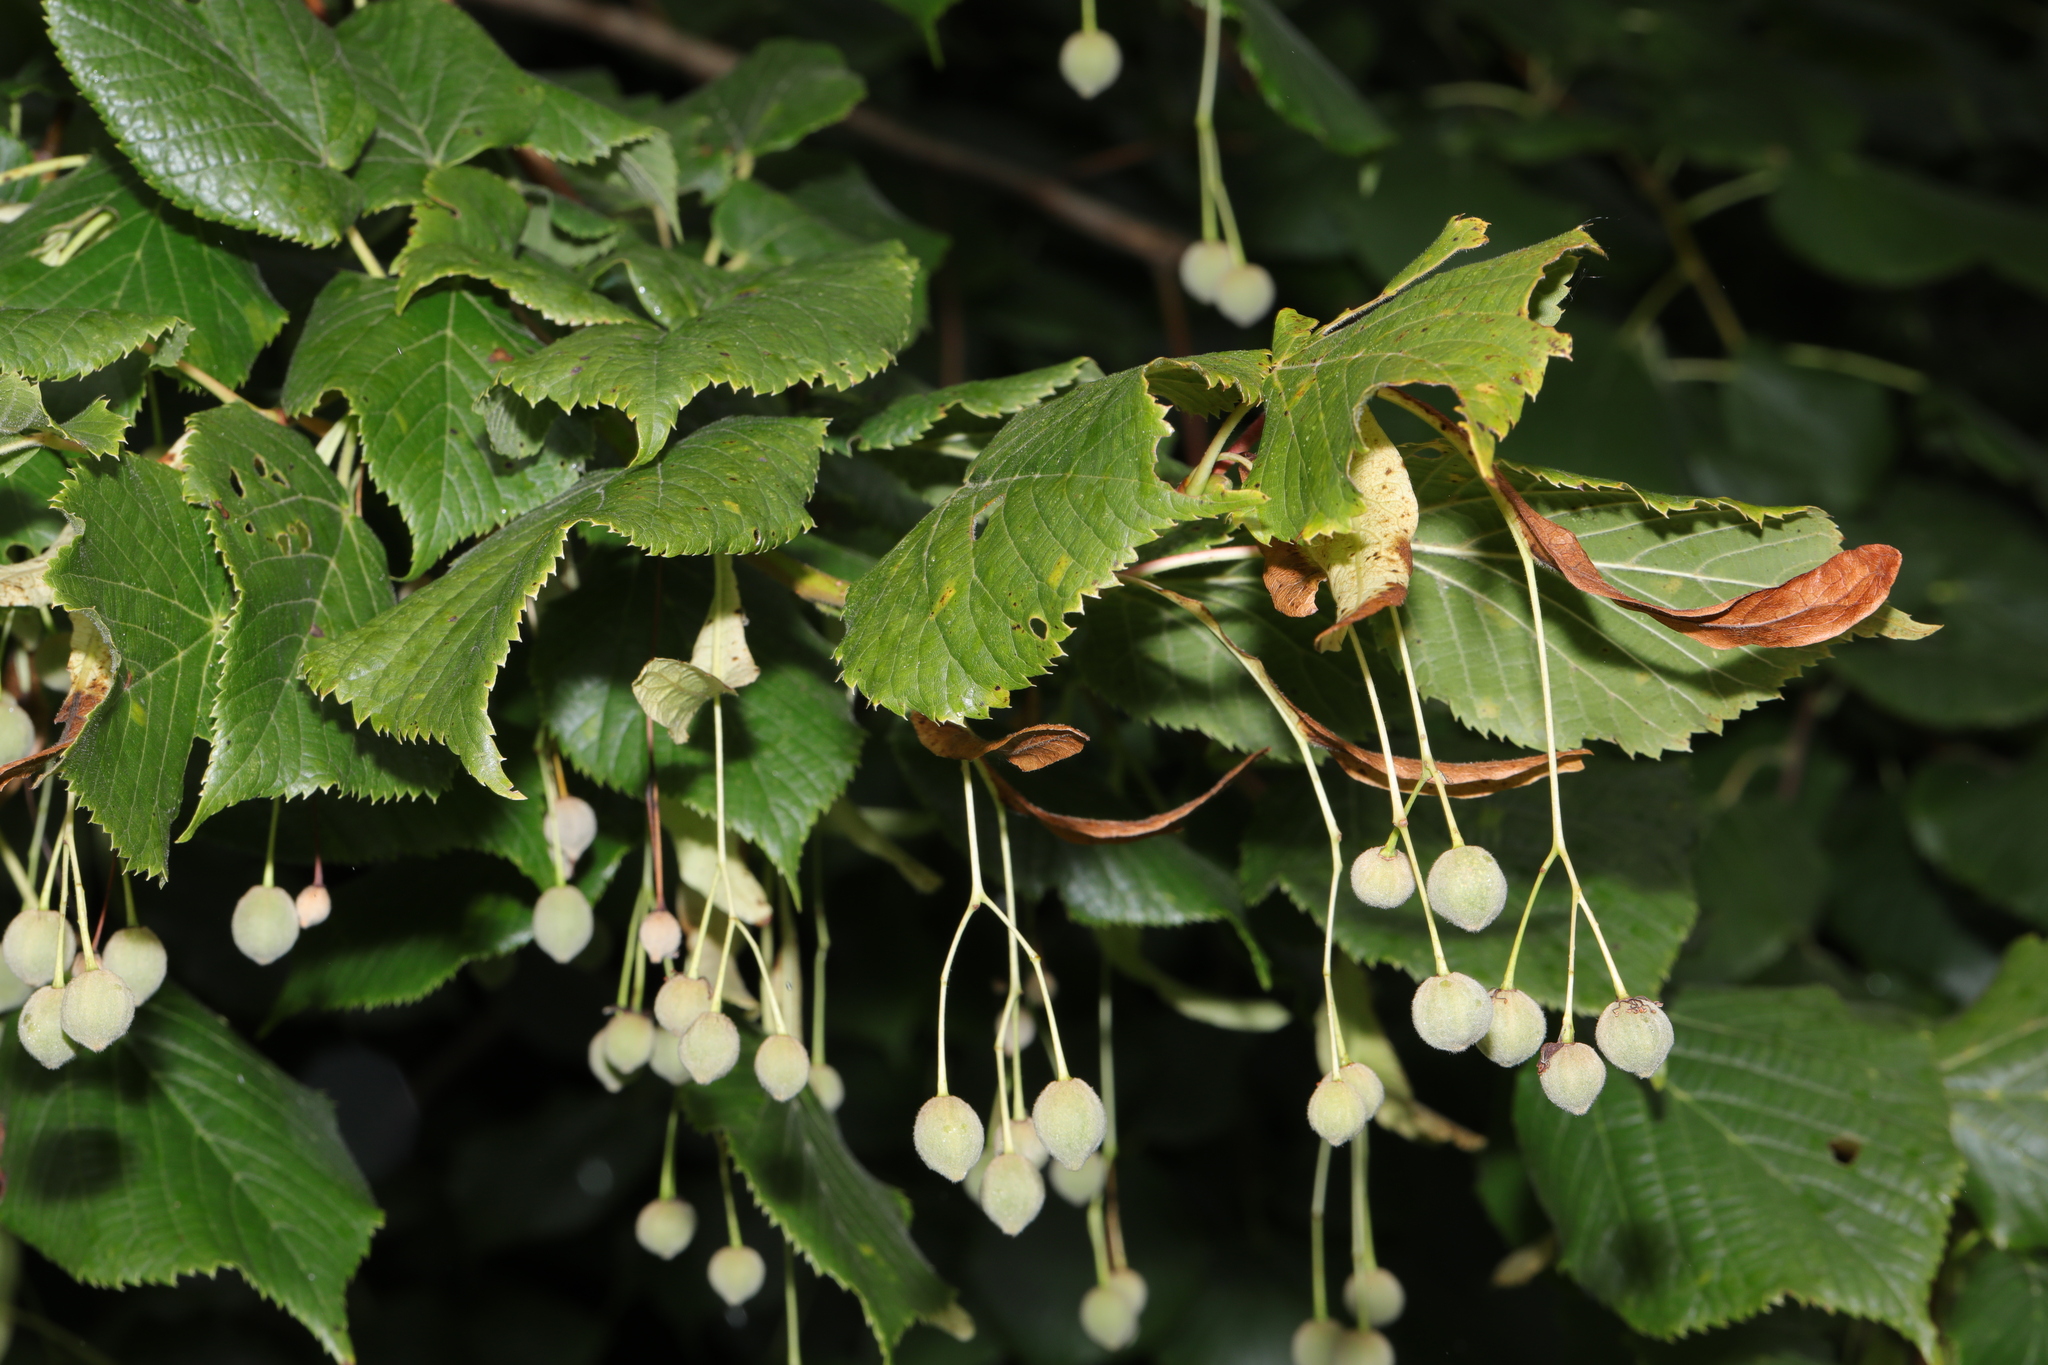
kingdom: Plantae
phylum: Tracheophyta
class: Magnoliopsida
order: Malvales
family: Malvaceae
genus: Tilia
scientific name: Tilia europaea
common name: European linden
